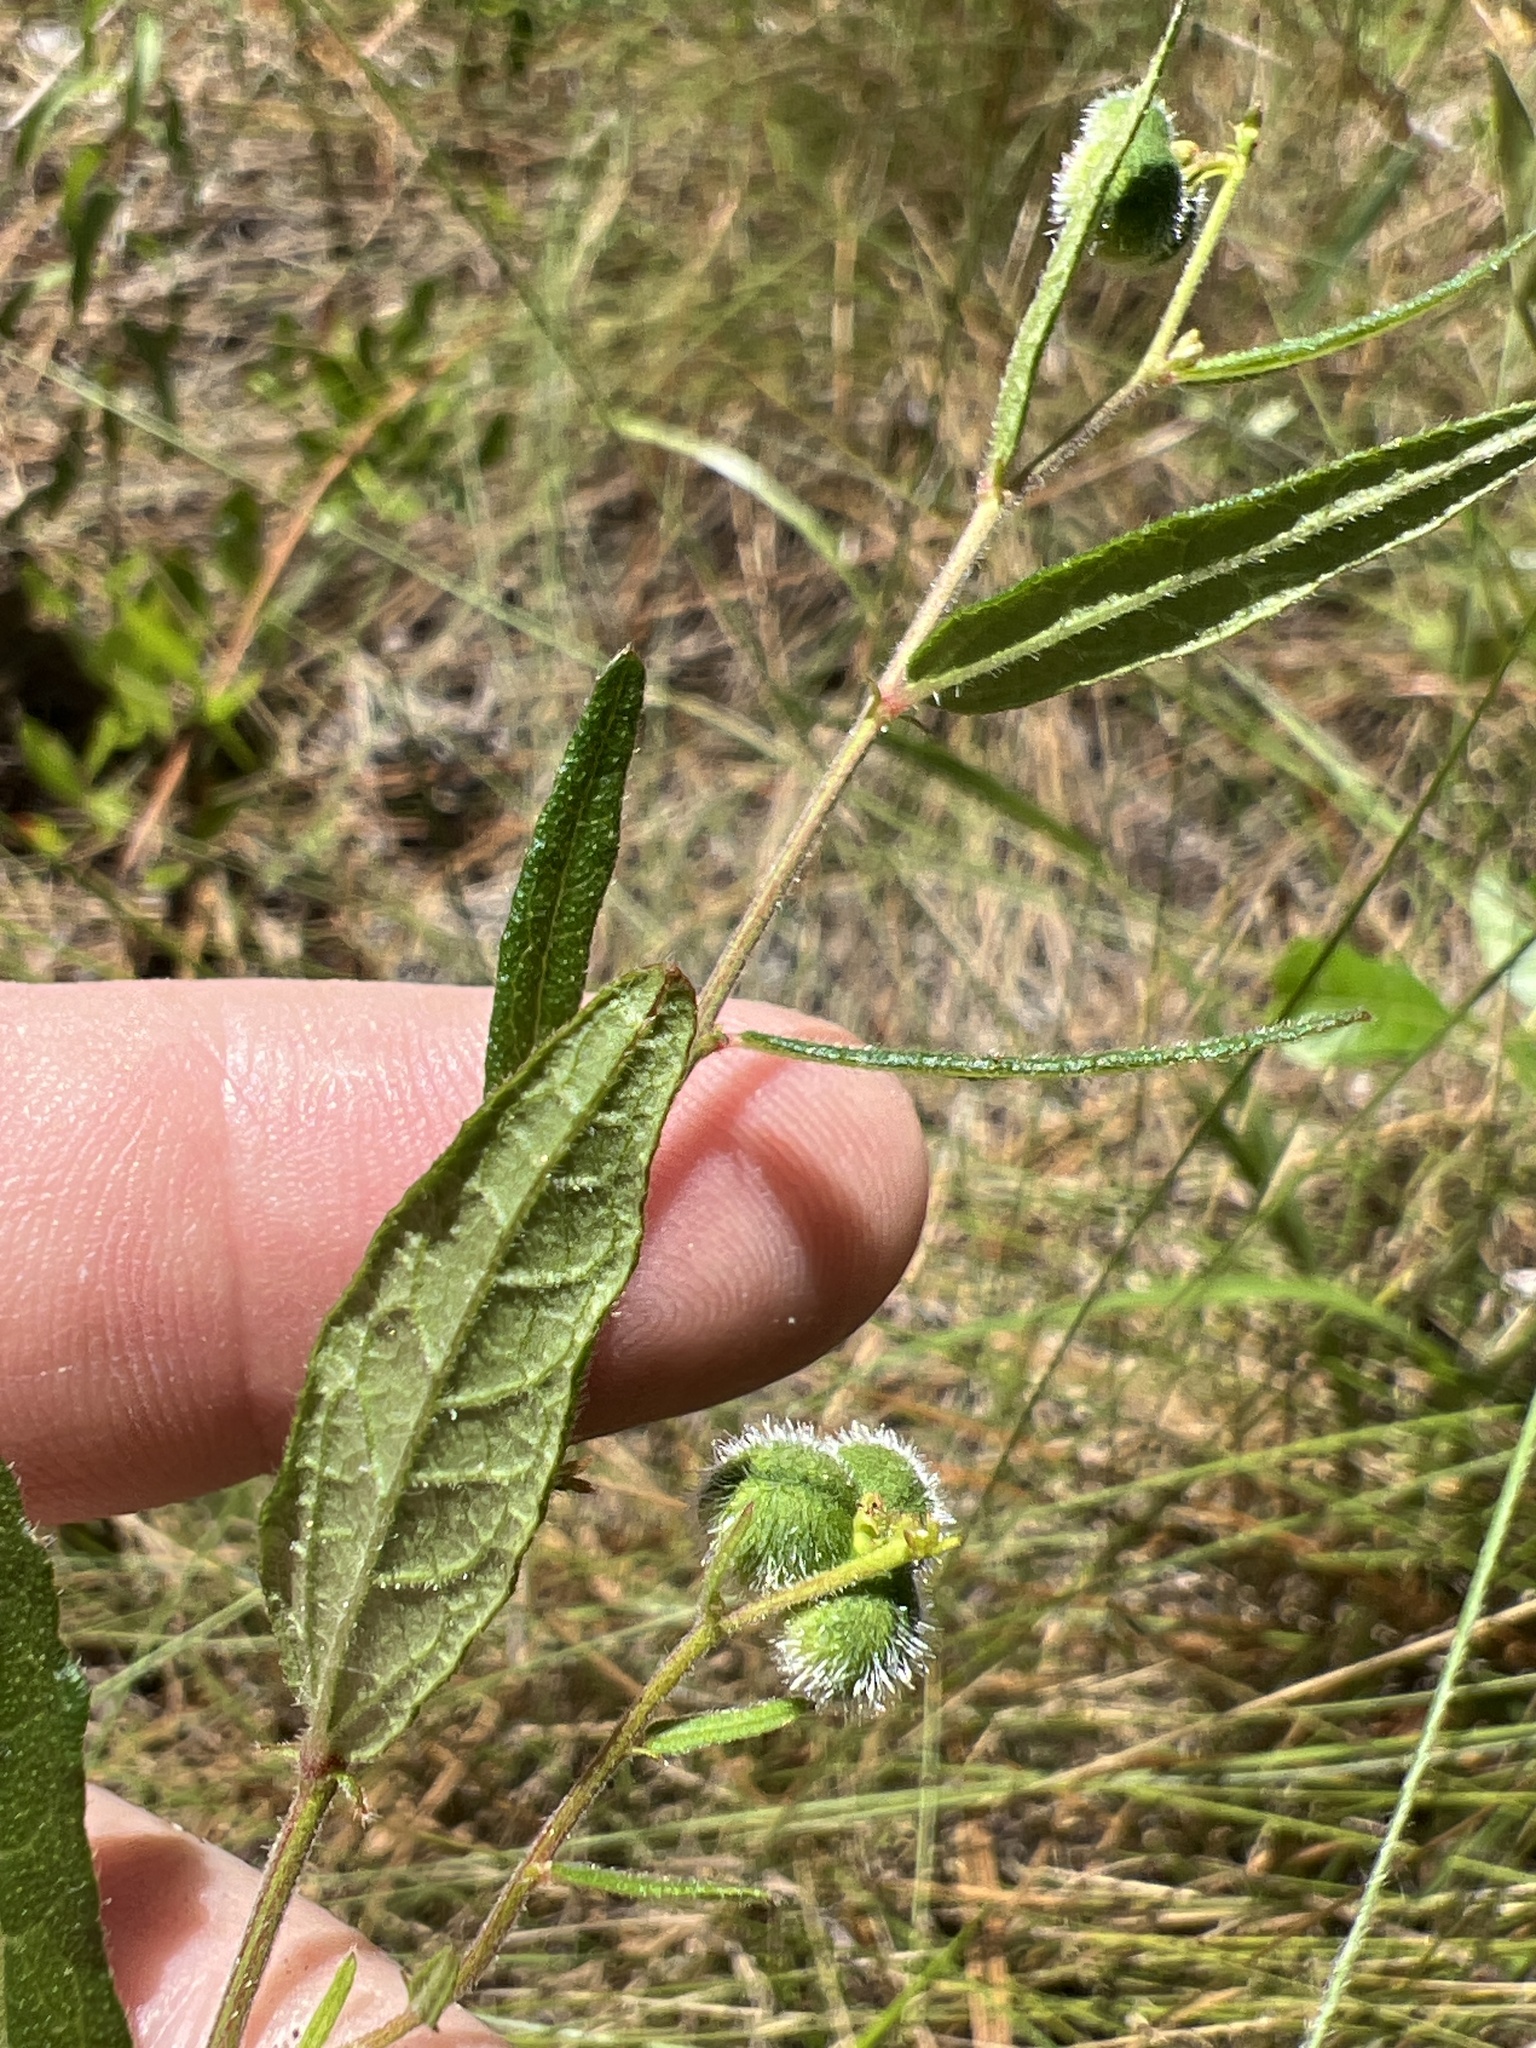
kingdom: Plantae
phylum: Tracheophyta
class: Magnoliopsida
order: Malpighiales
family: Euphorbiaceae
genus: Tragia
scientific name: Tragia urens
